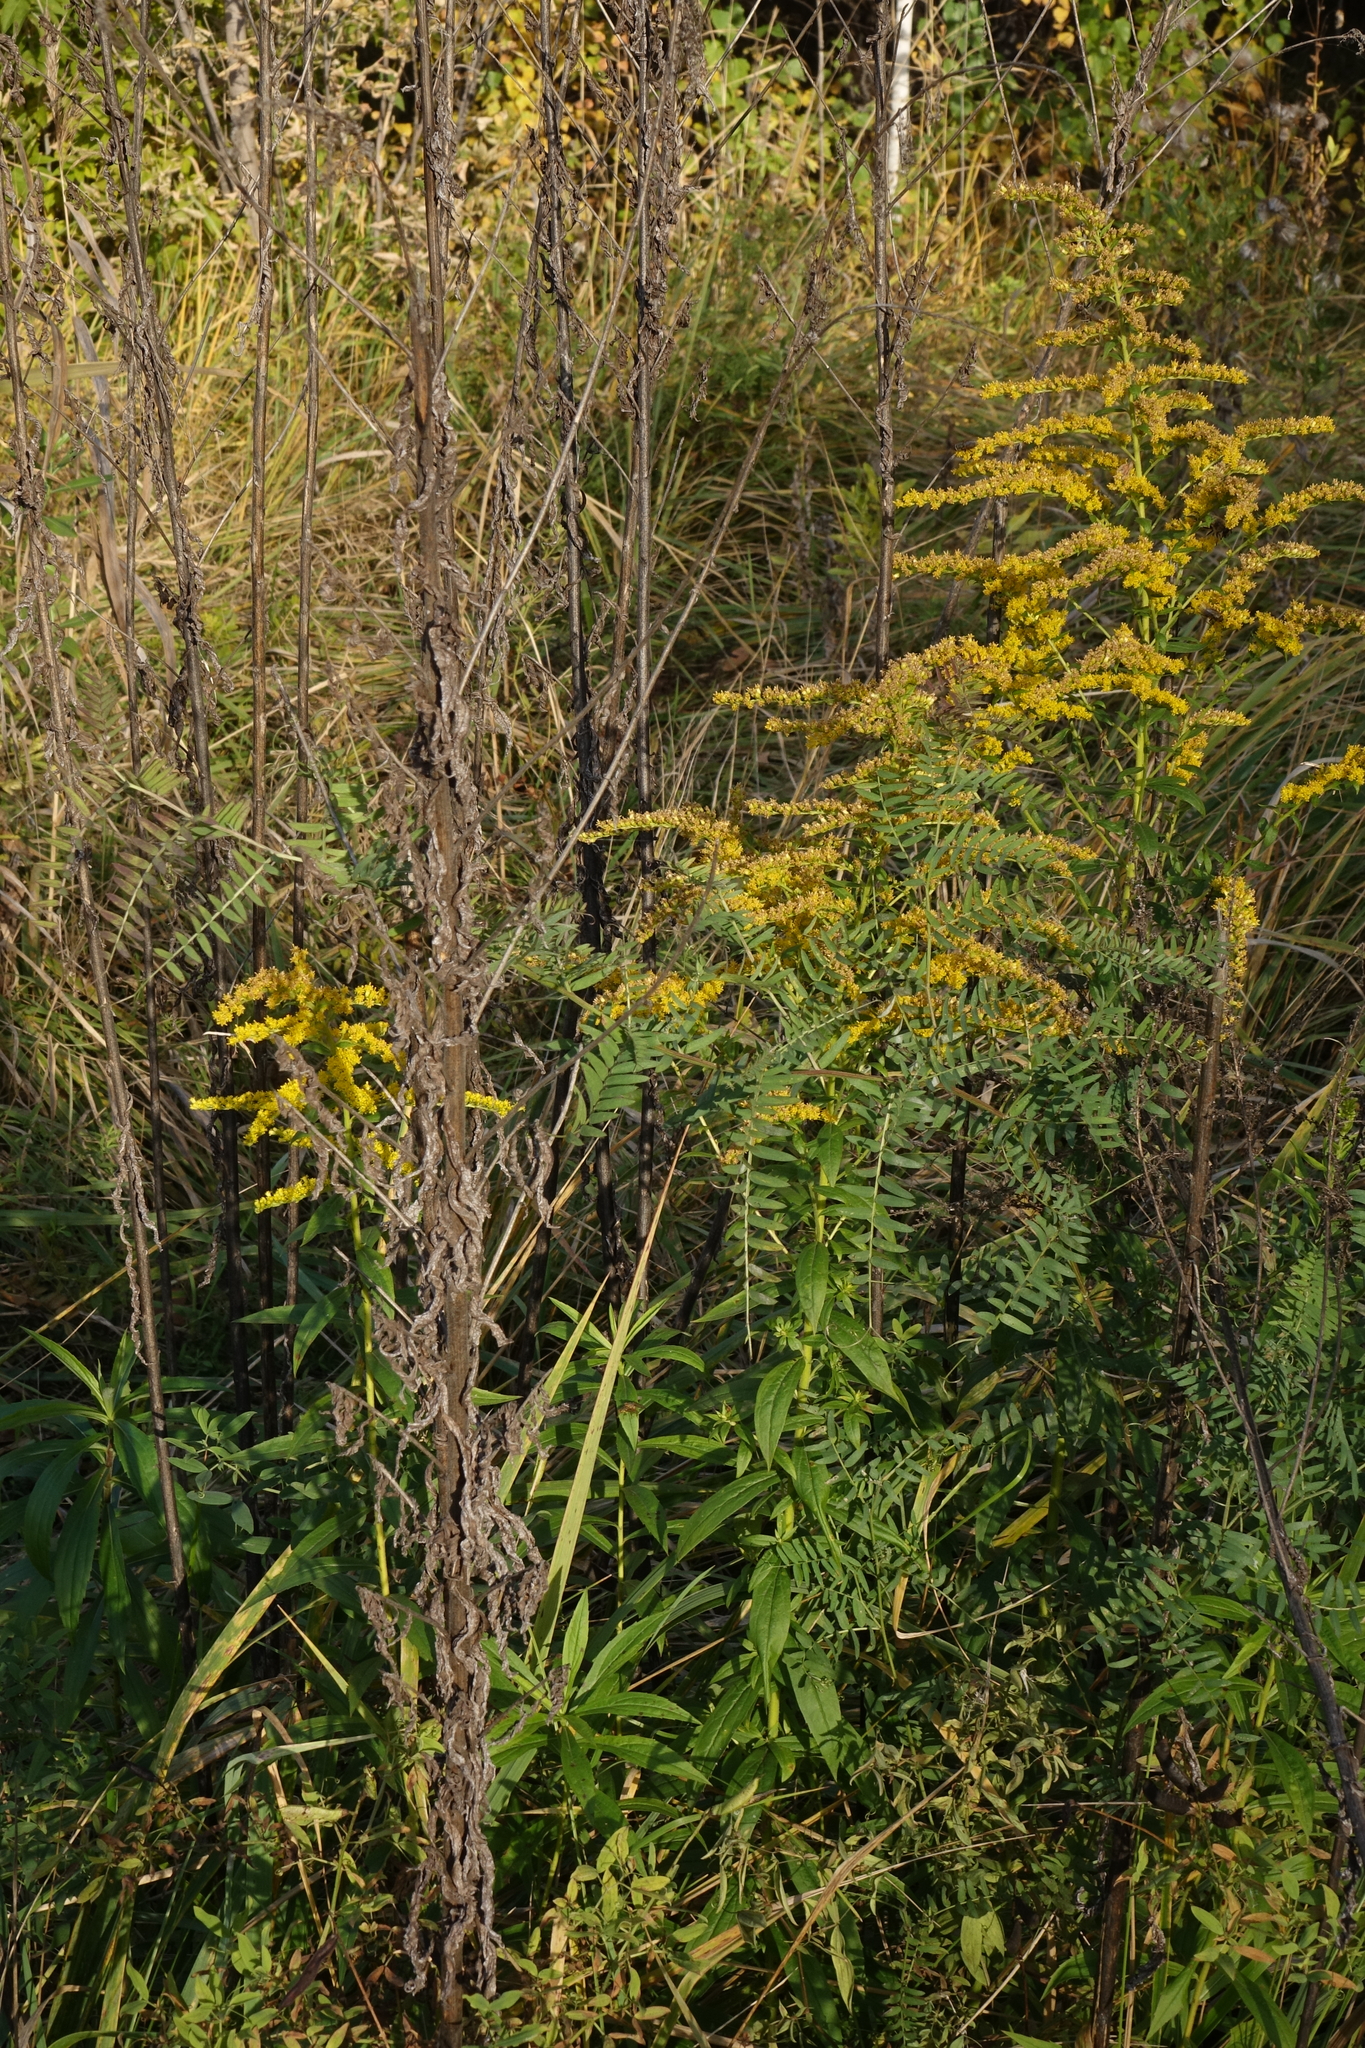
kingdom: Plantae
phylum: Tracheophyta
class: Magnoliopsida
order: Asterales
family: Asteraceae
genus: Solidago
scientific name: Solidago canadensis
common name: Canada goldenrod
